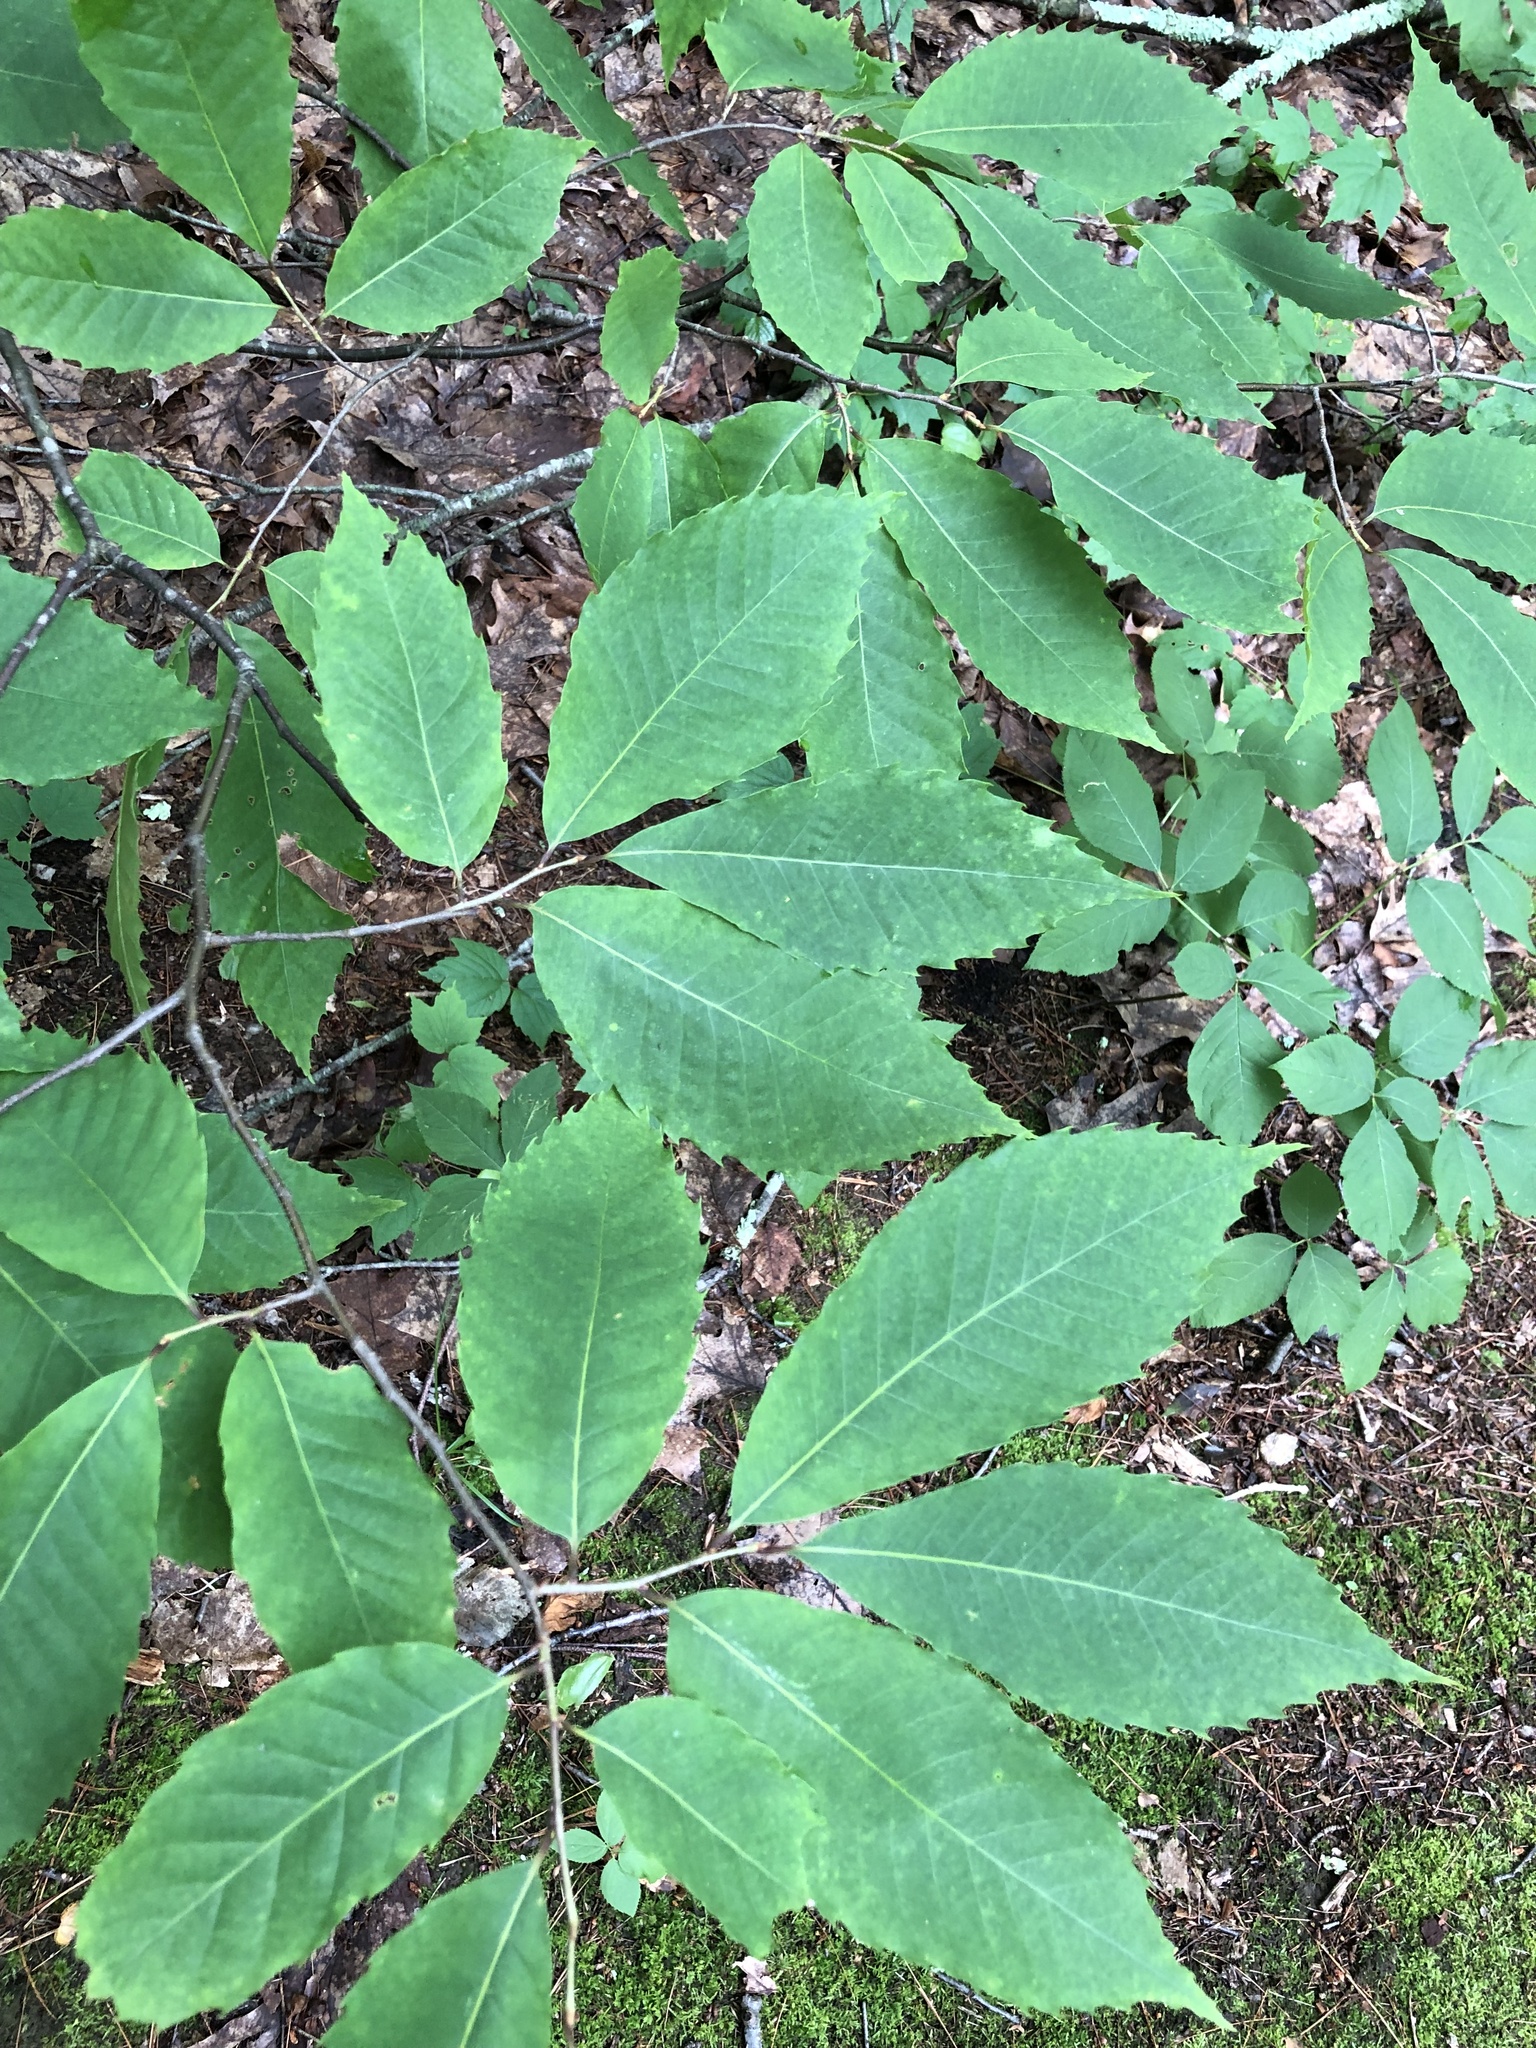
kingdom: Plantae
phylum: Tracheophyta
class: Magnoliopsida
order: Fagales
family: Fagaceae
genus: Castanea
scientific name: Castanea dentata
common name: American chestnut
